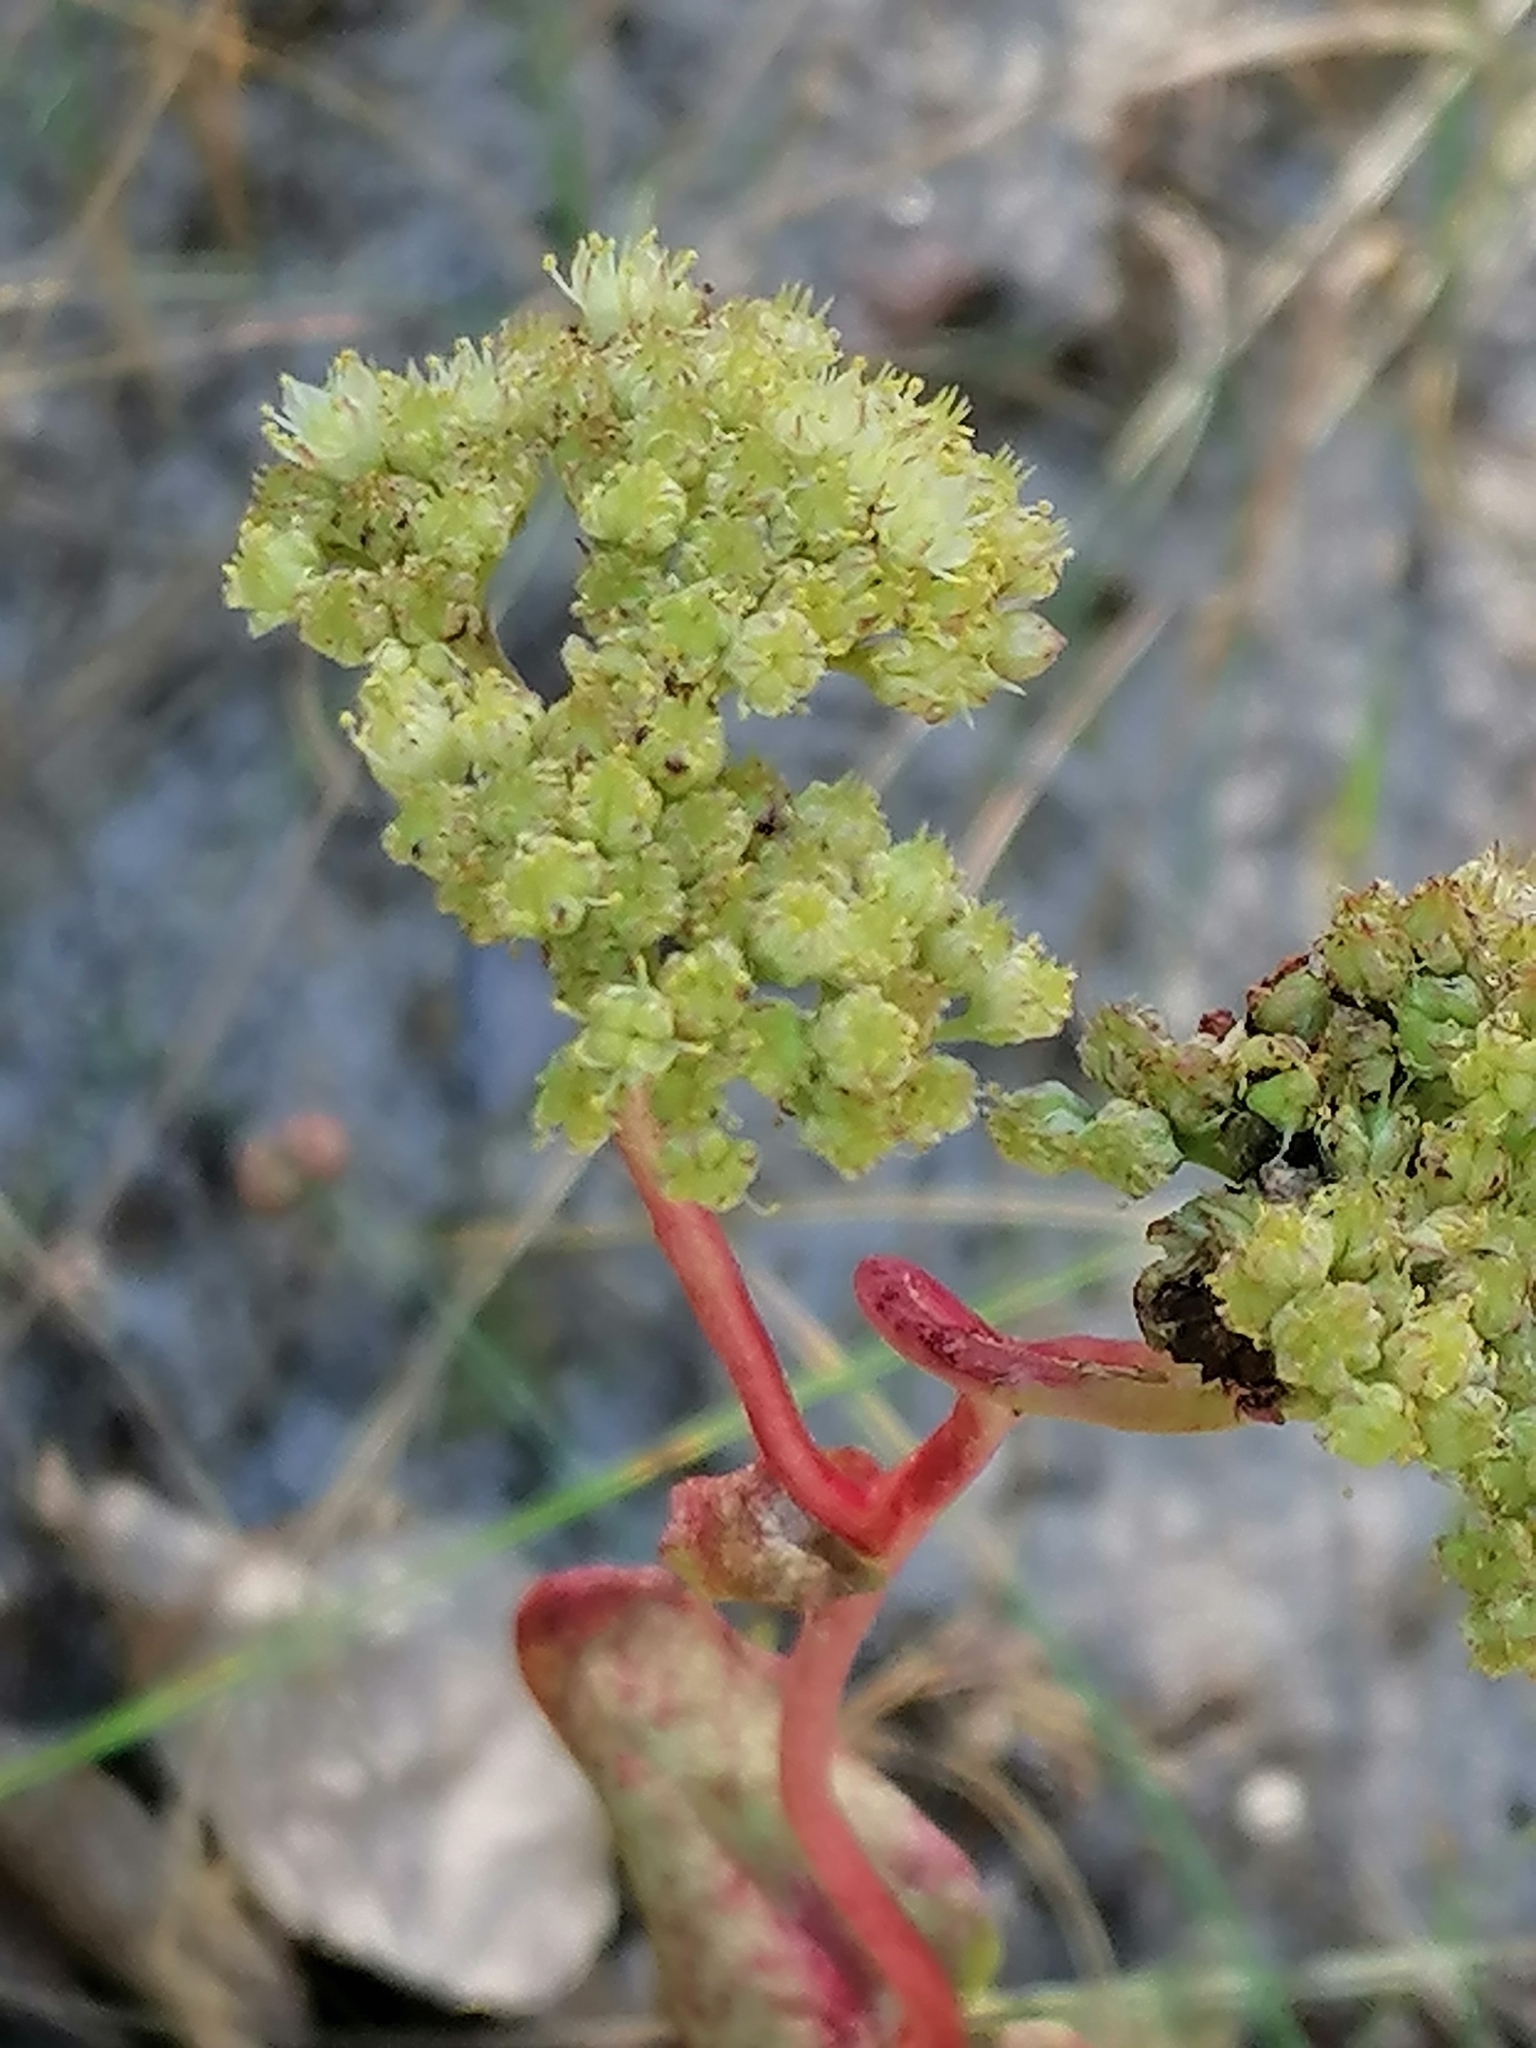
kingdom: Plantae
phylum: Tracheophyta
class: Magnoliopsida
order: Saxifragales
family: Crassulaceae
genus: Hylotelephium
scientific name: Hylotelephium maximum
